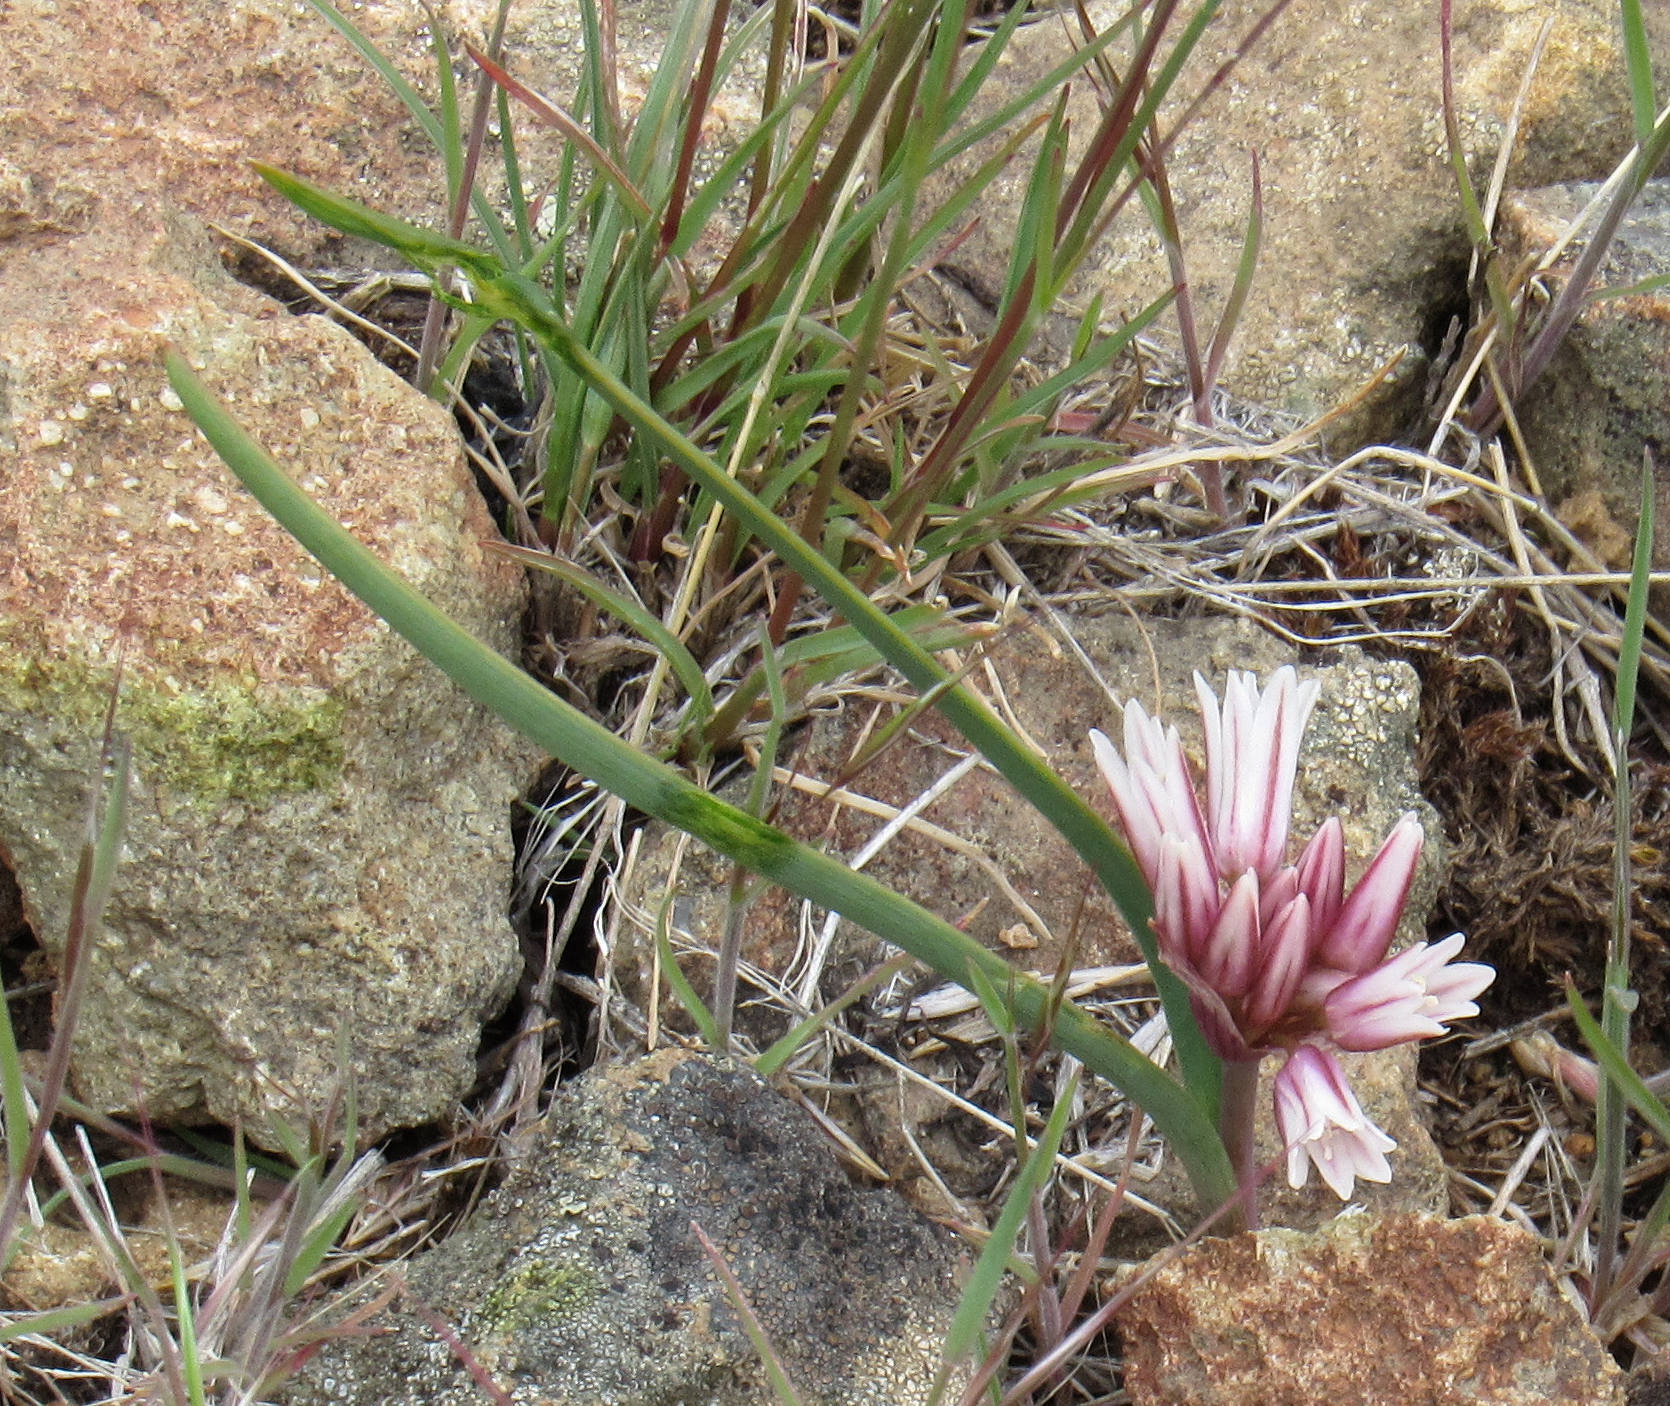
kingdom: Plantae
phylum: Tracheophyta
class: Liliopsida
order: Asparagales
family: Amaryllidaceae
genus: Allium
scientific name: Allium brandegeei
